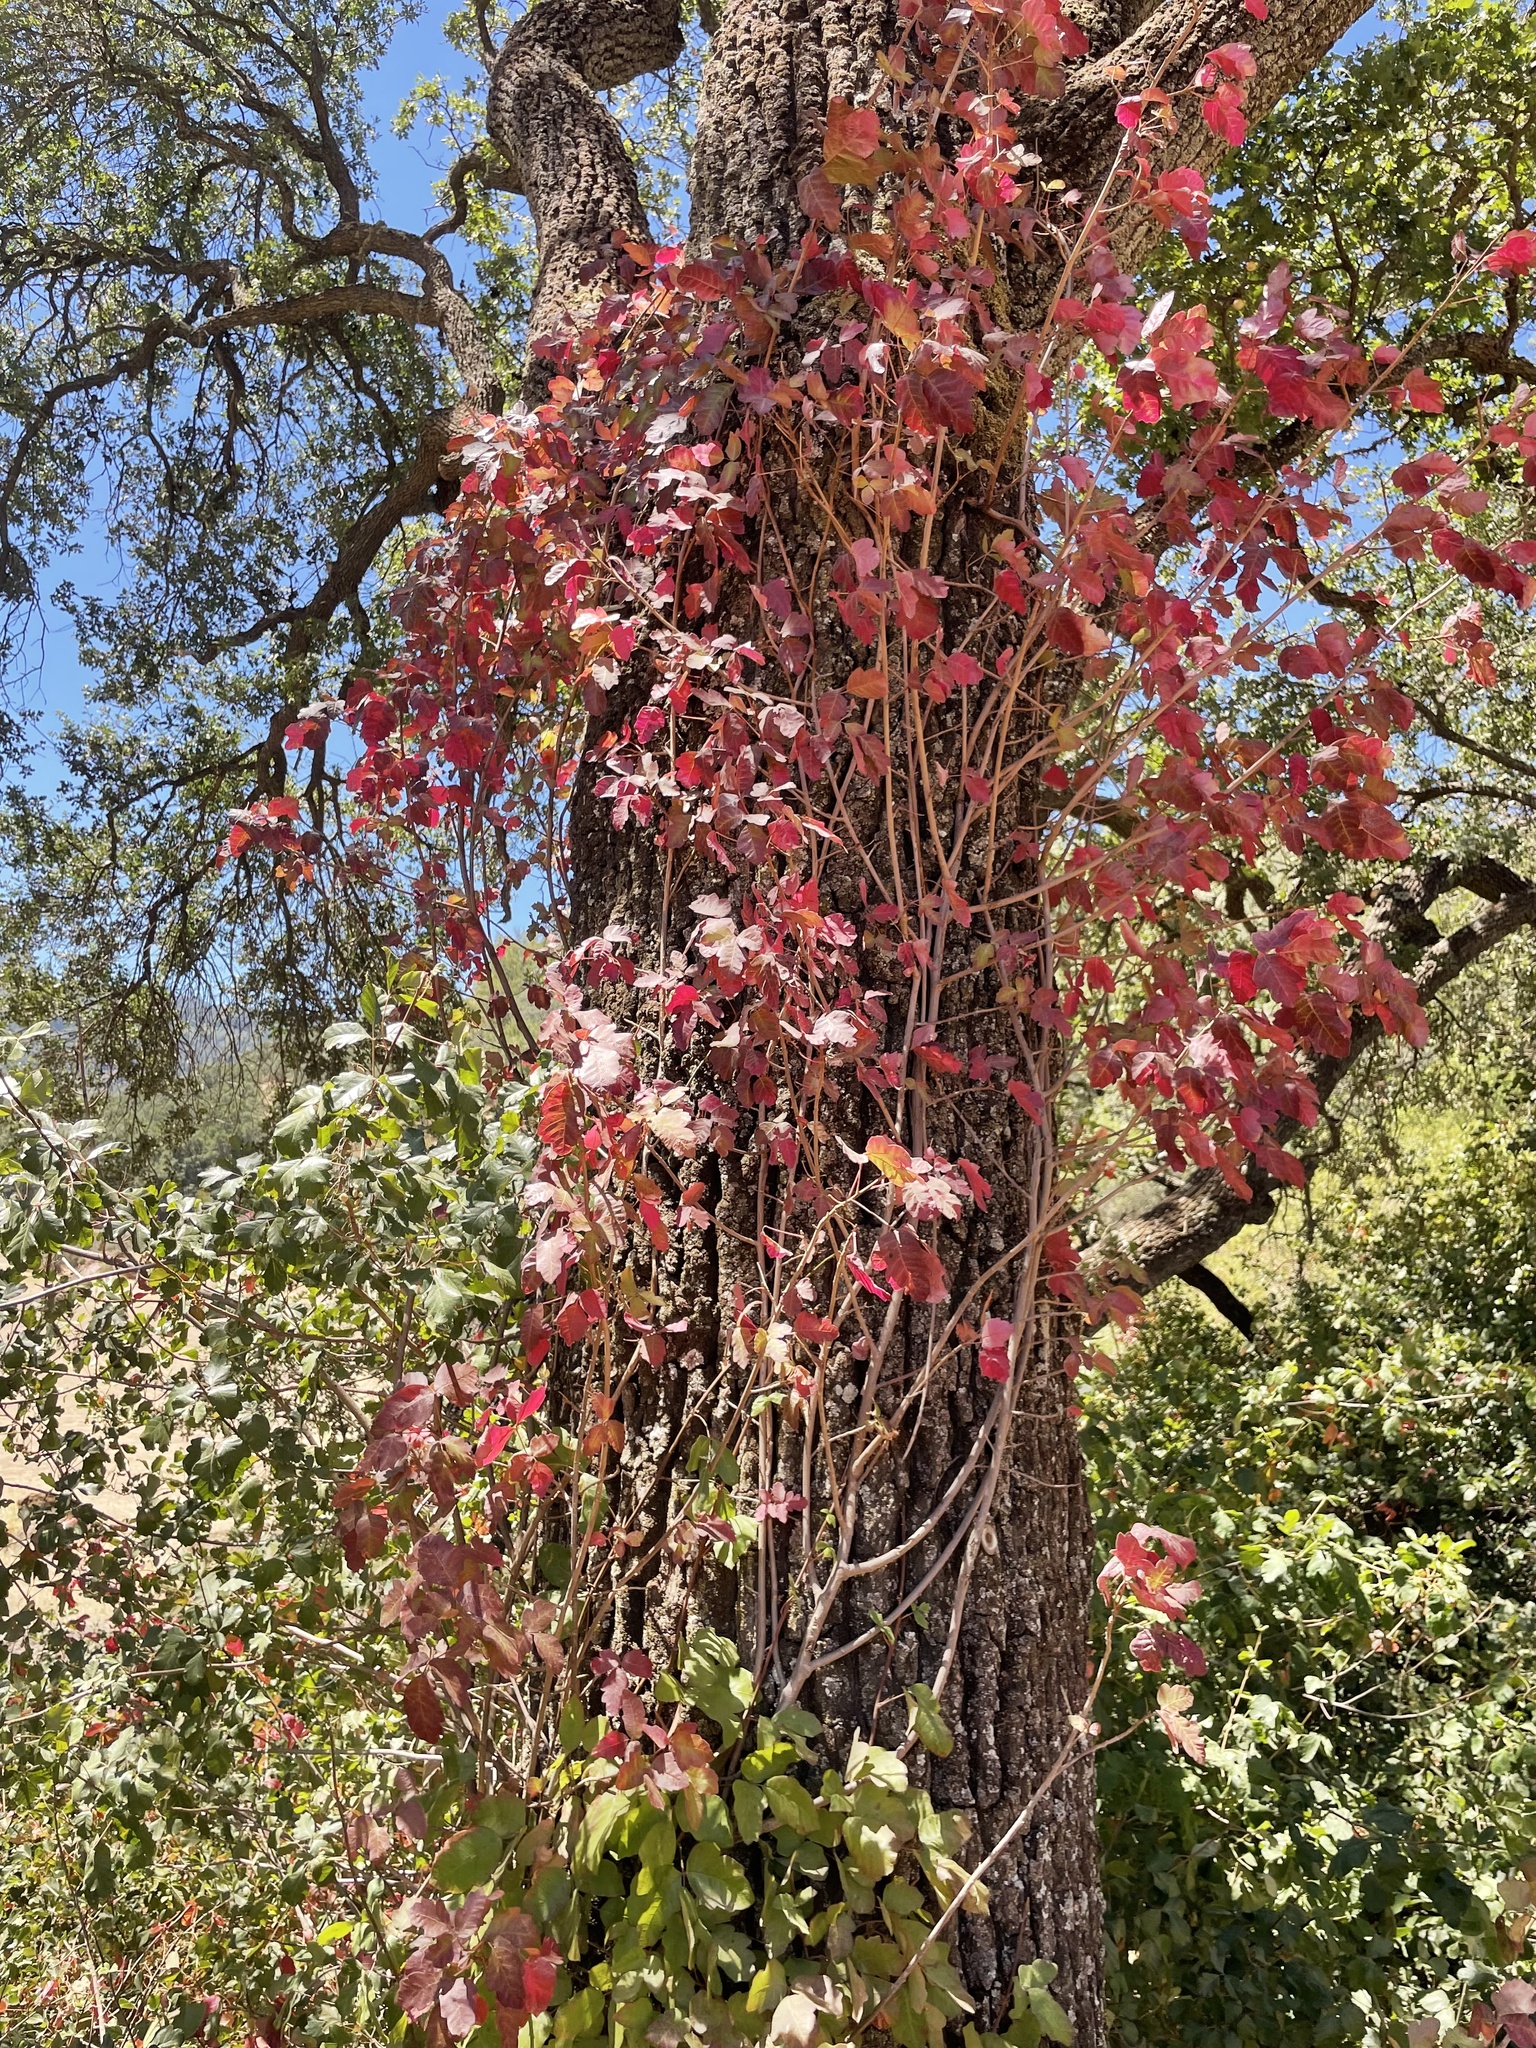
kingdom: Plantae
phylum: Tracheophyta
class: Magnoliopsida
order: Sapindales
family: Anacardiaceae
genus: Toxicodendron
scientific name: Toxicodendron diversilobum
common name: Pacific poison-oak
